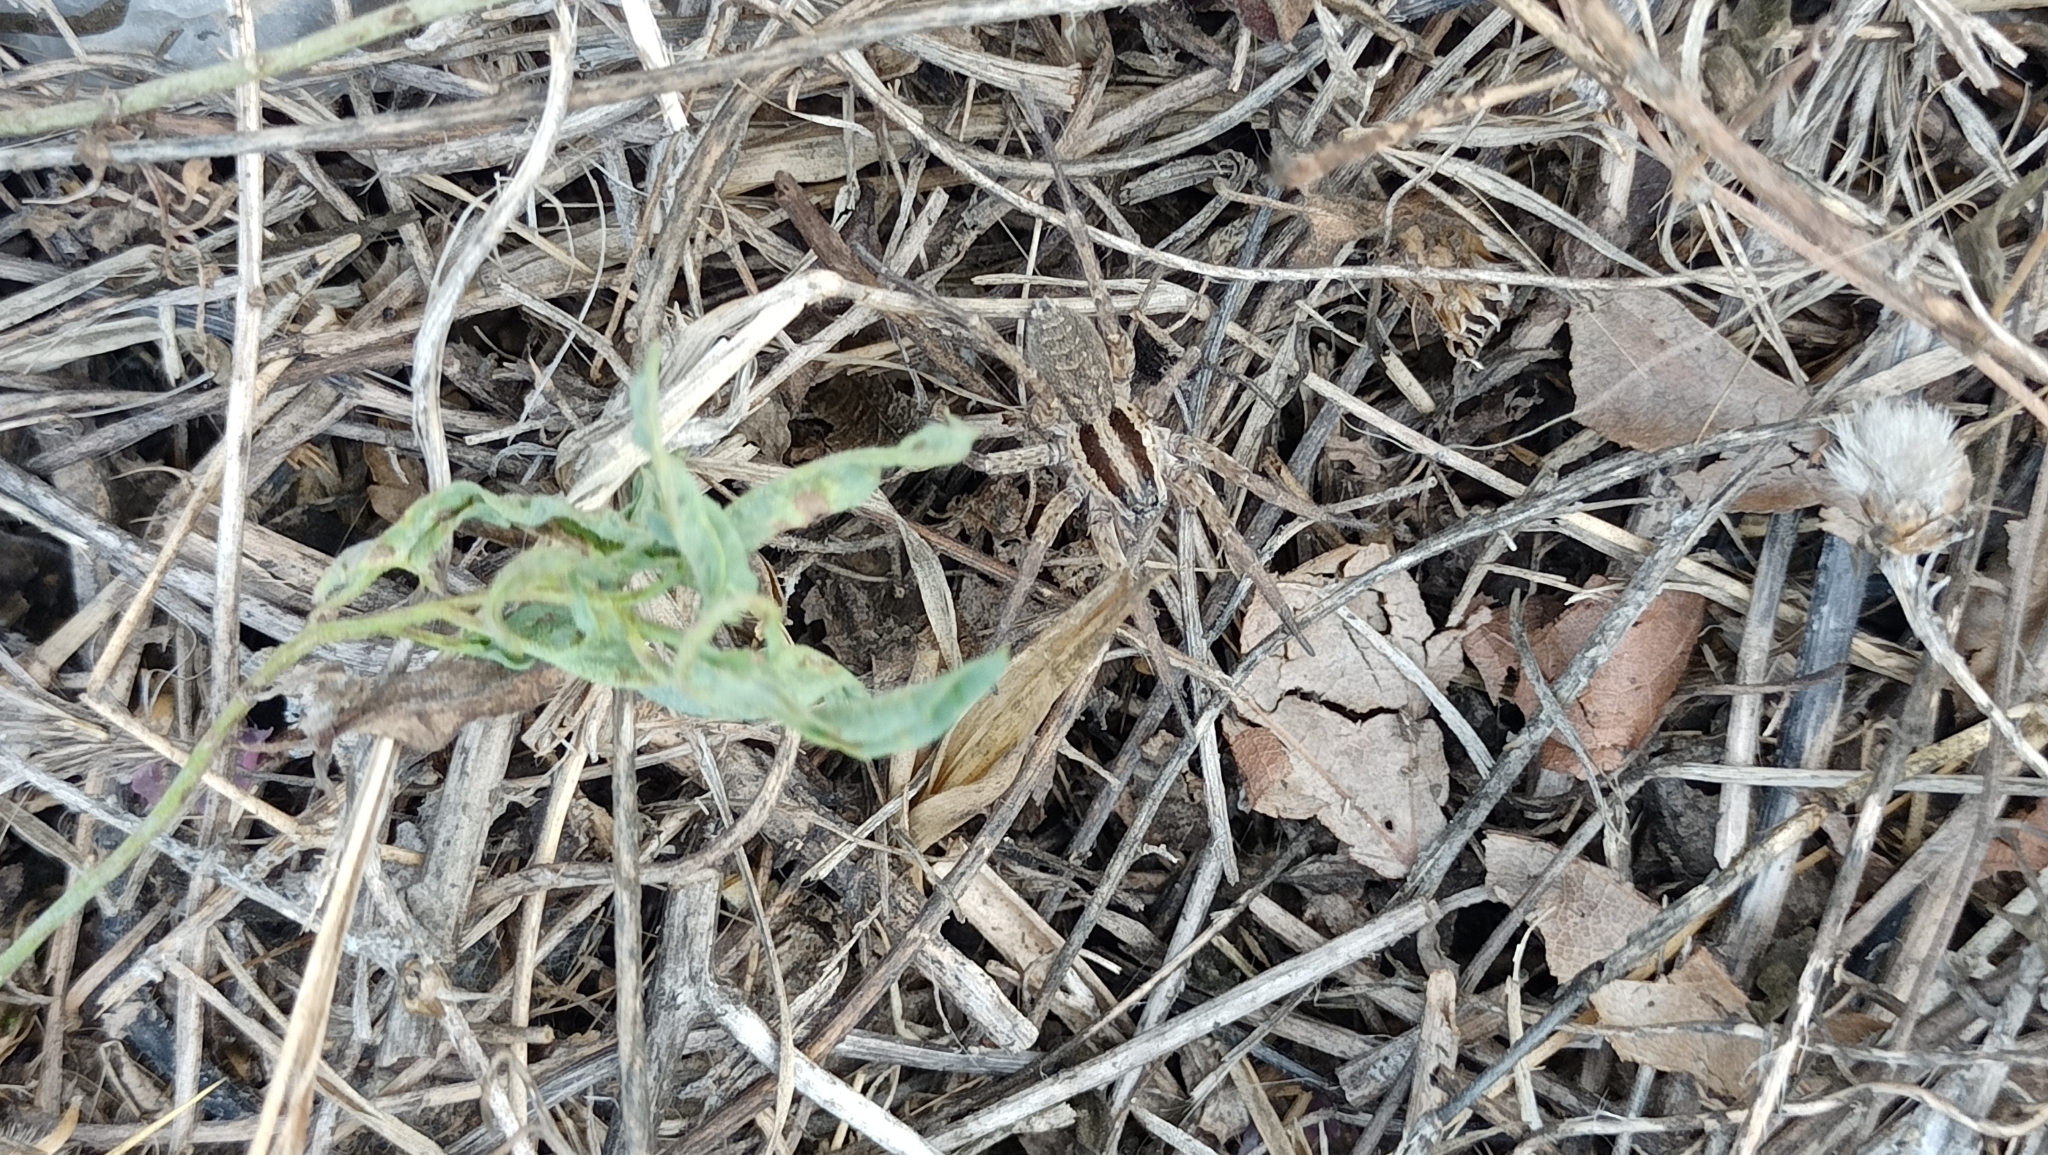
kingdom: Animalia
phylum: Arthropoda
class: Arachnida
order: Araneae
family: Lycosidae
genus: Hogna
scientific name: Hogna radiata
